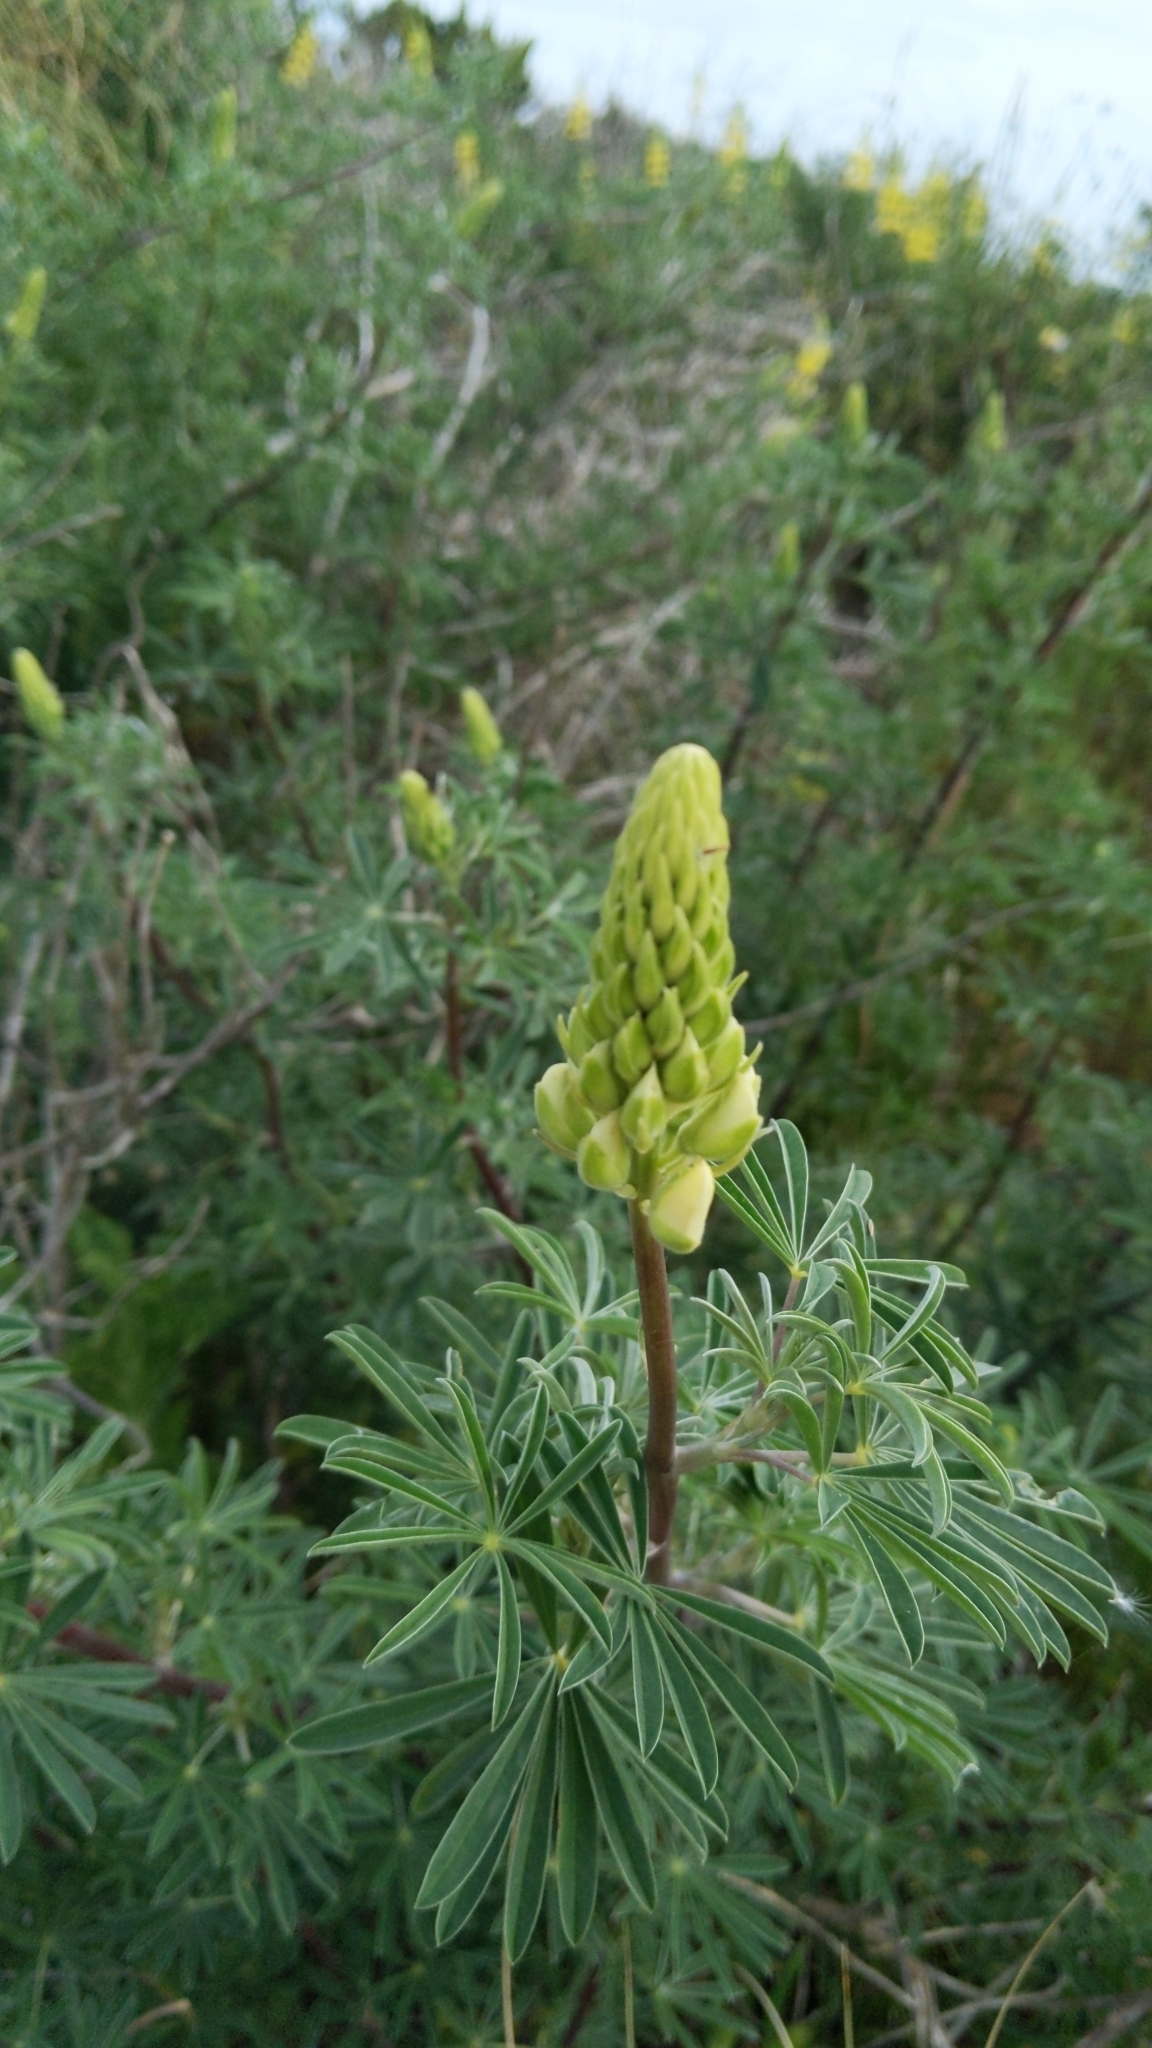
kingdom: Plantae
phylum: Tracheophyta
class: Magnoliopsida
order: Fabales
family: Fabaceae
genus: Lupinus
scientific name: Lupinus arboreus
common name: Yellow bush lupine
